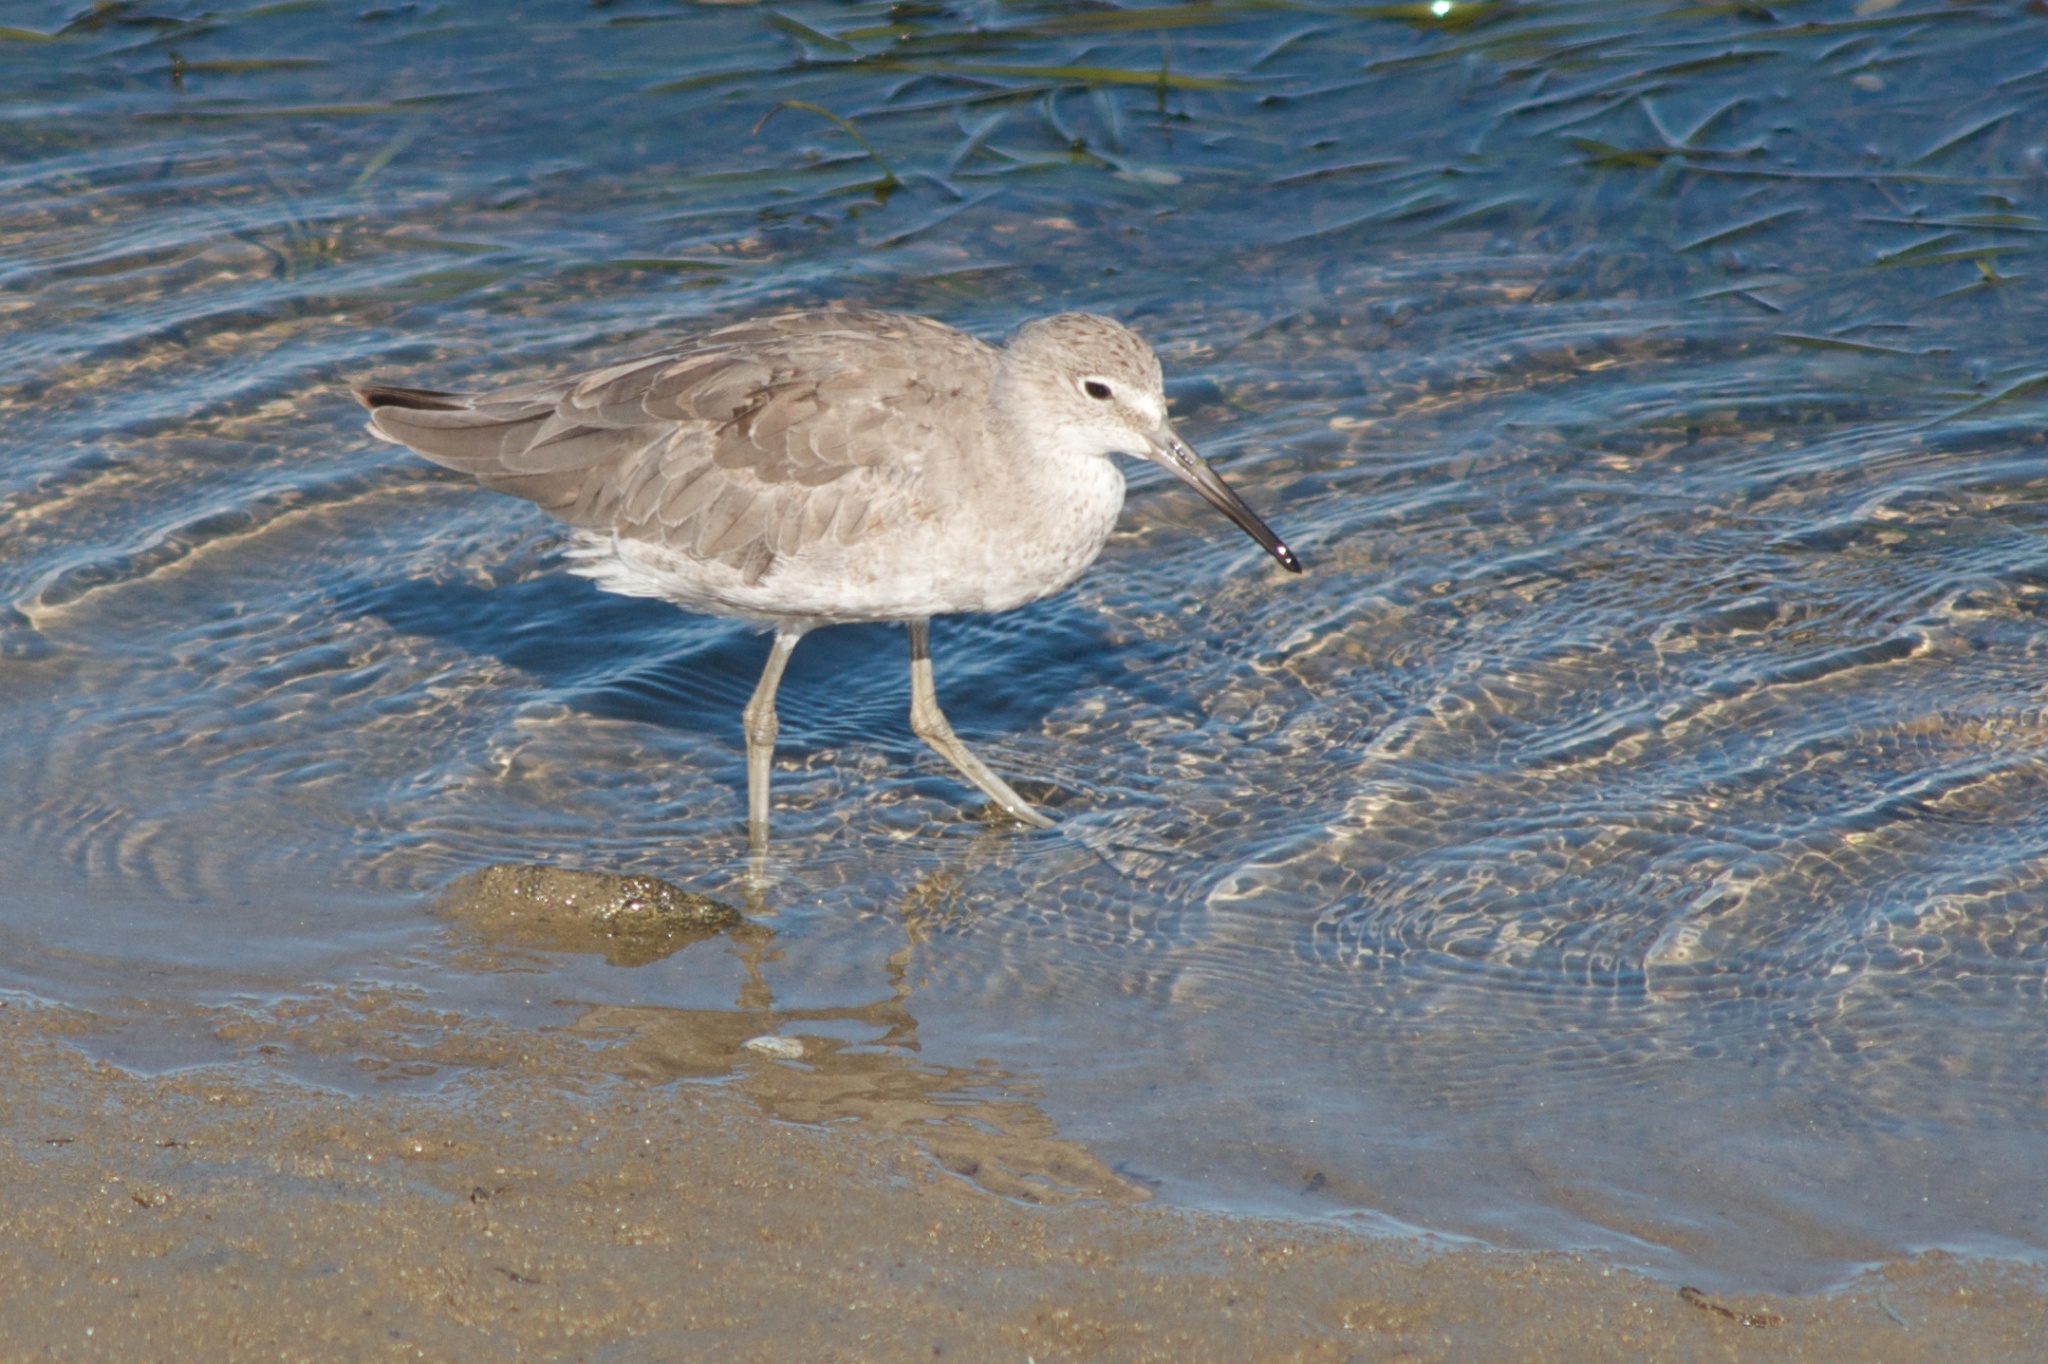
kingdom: Animalia
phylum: Chordata
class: Aves
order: Charadriiformes
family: Scolopacidae
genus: Tringa
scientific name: Tringa semipalmata
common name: Willet
